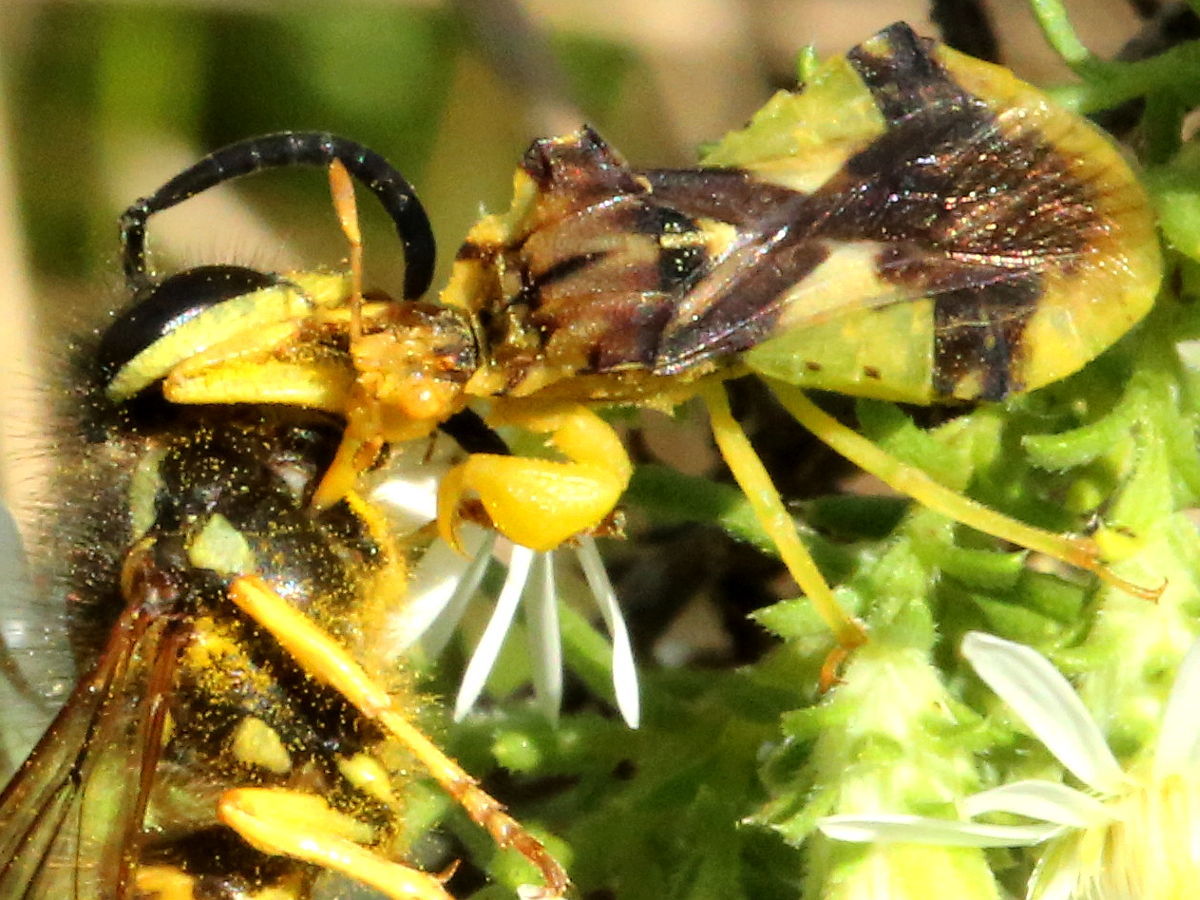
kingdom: Animalia
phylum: Arthropoda
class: Insecta
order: Hemiptera
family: Reduviidae
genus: Phymata
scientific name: Phymata americana
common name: Jagged ambush bug
